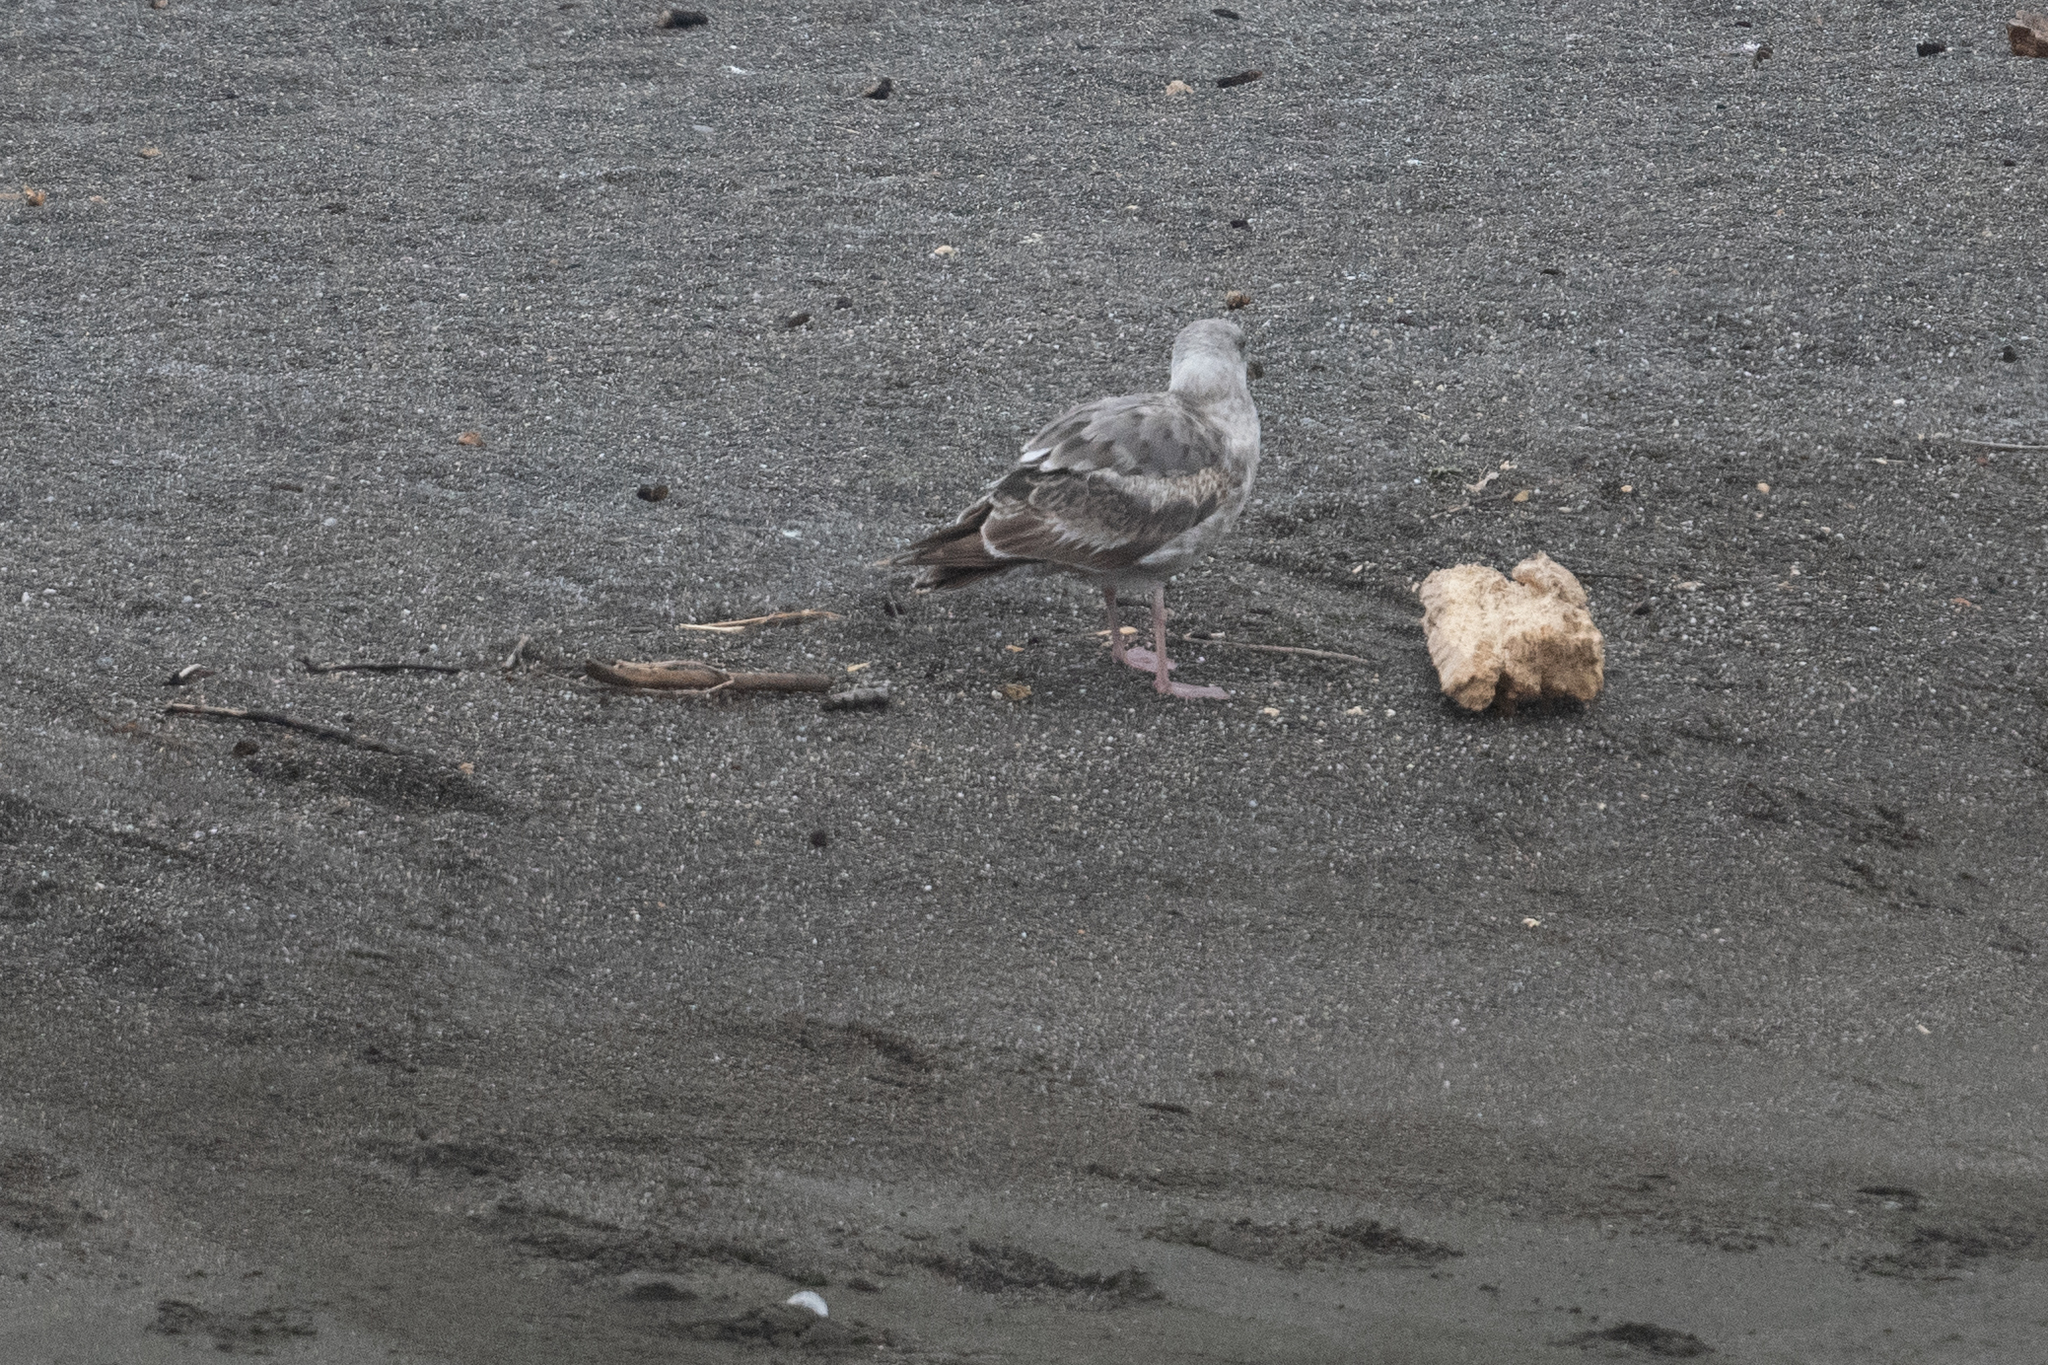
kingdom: Animalia
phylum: Chordata
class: Aves
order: Charadriiformes
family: Laridae
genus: Larus
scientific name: Larus occidentalis
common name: Western gull
